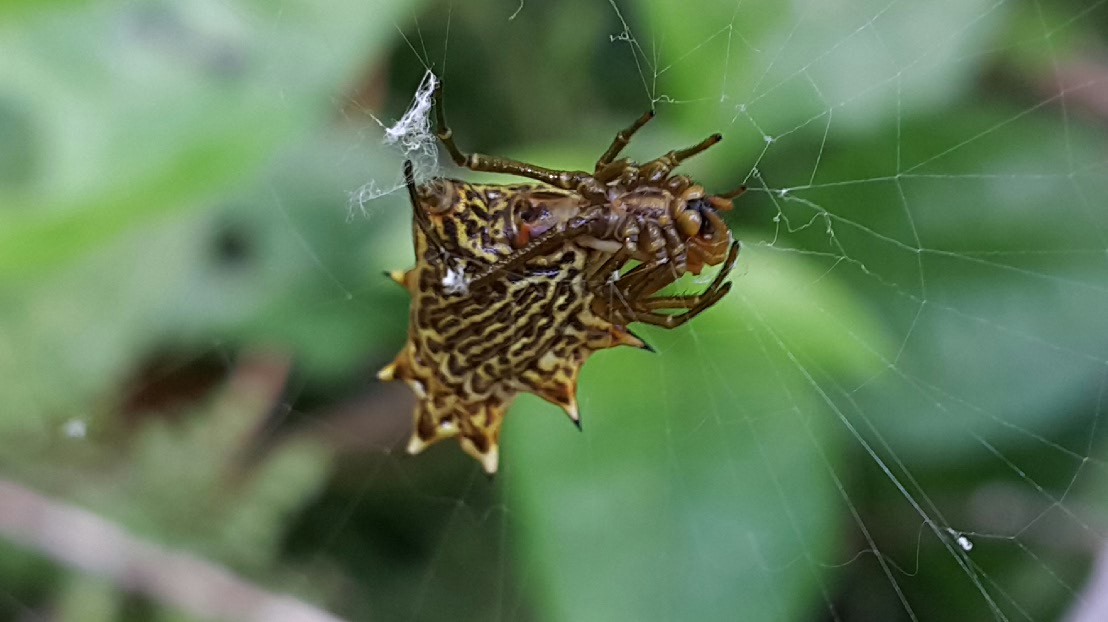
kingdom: Animalia
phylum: Arthropoda
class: Arachnida
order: Araneae
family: Araneidae
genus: Micrathena
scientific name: Micrathena gracilis
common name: Orb weavers
